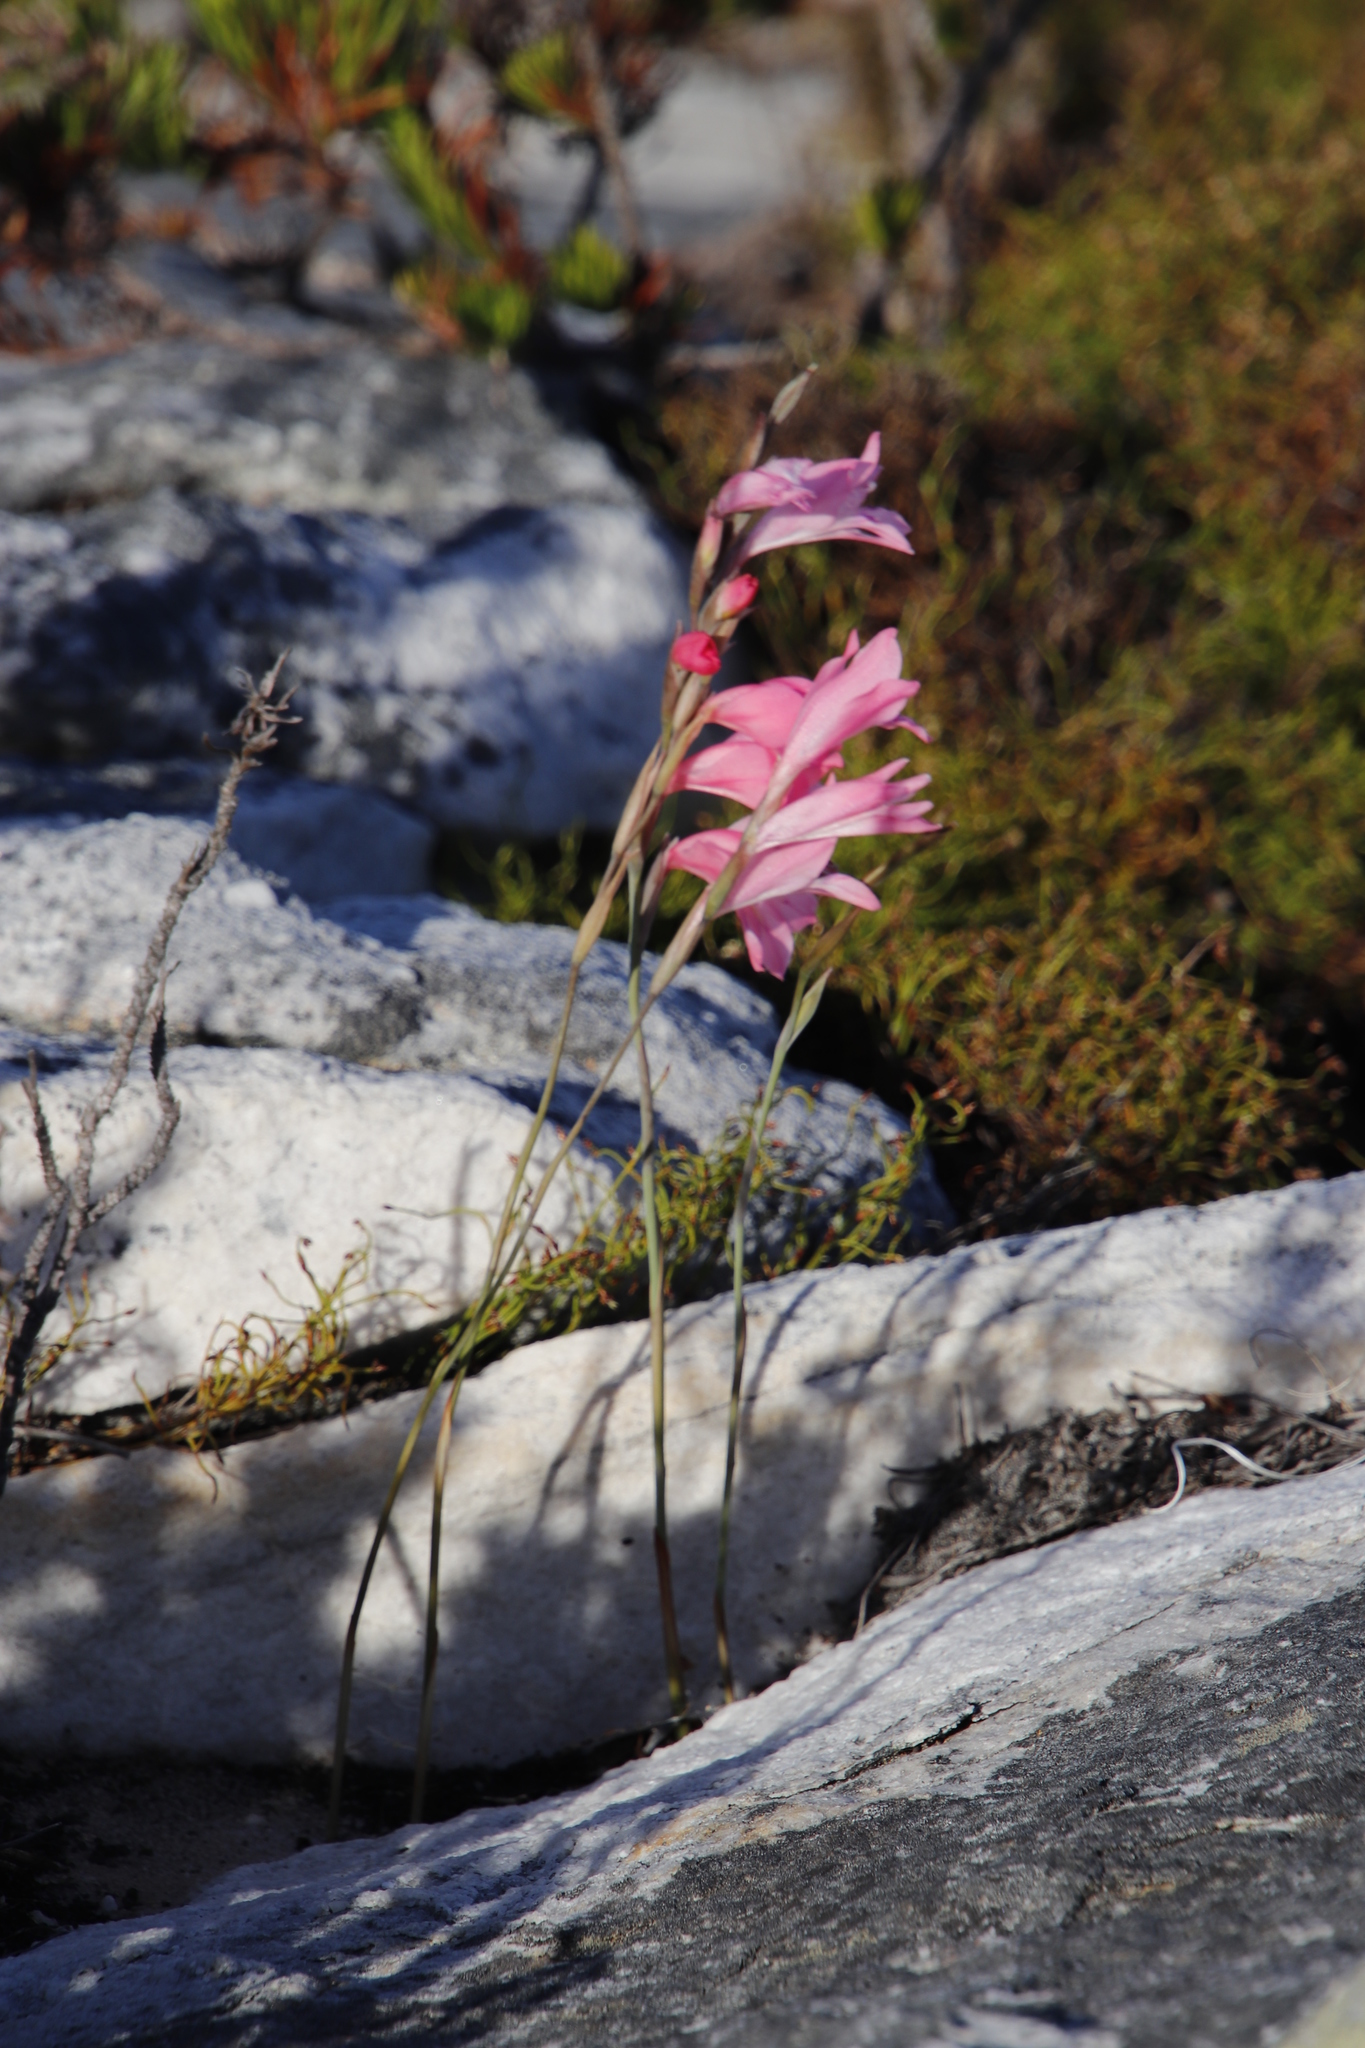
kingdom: Plantae
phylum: Tracheophyta
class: Liliopsida
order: Asparagales
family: Iridaceae
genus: Gladiolus
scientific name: Gladiolus brevifolius
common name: March pypie
